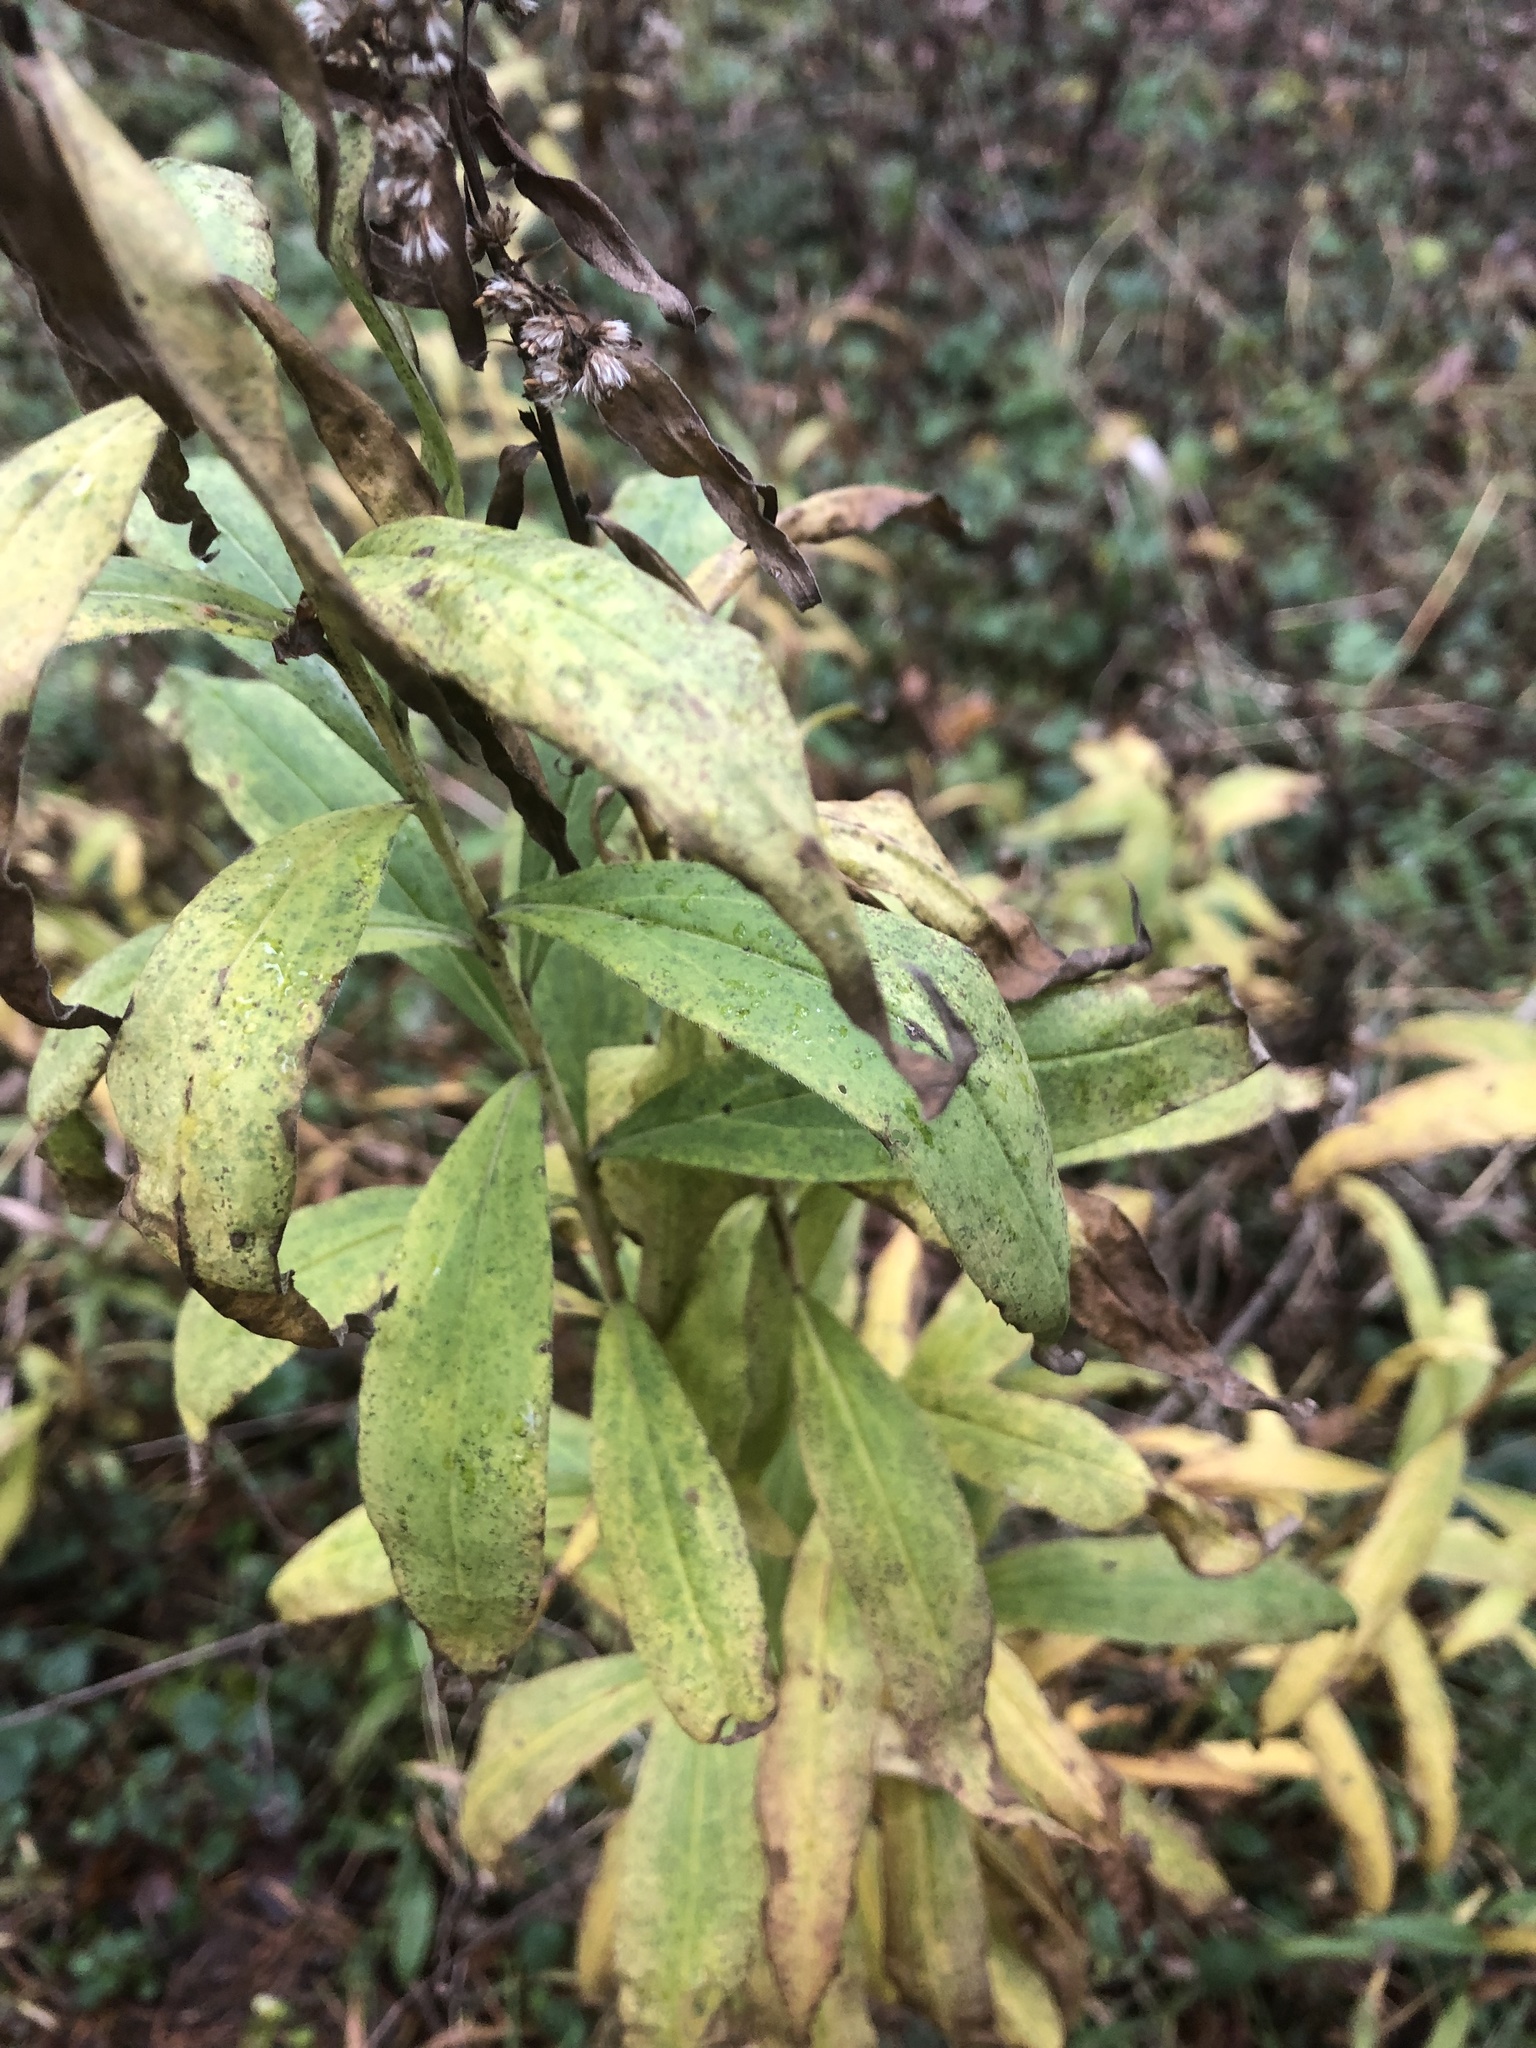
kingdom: Plantae
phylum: Tracheophyta
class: Magnoliopsida
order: Asterales
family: Asteraceae
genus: Solidago
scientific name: Solidago gigantea
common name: Giant goldenrod
